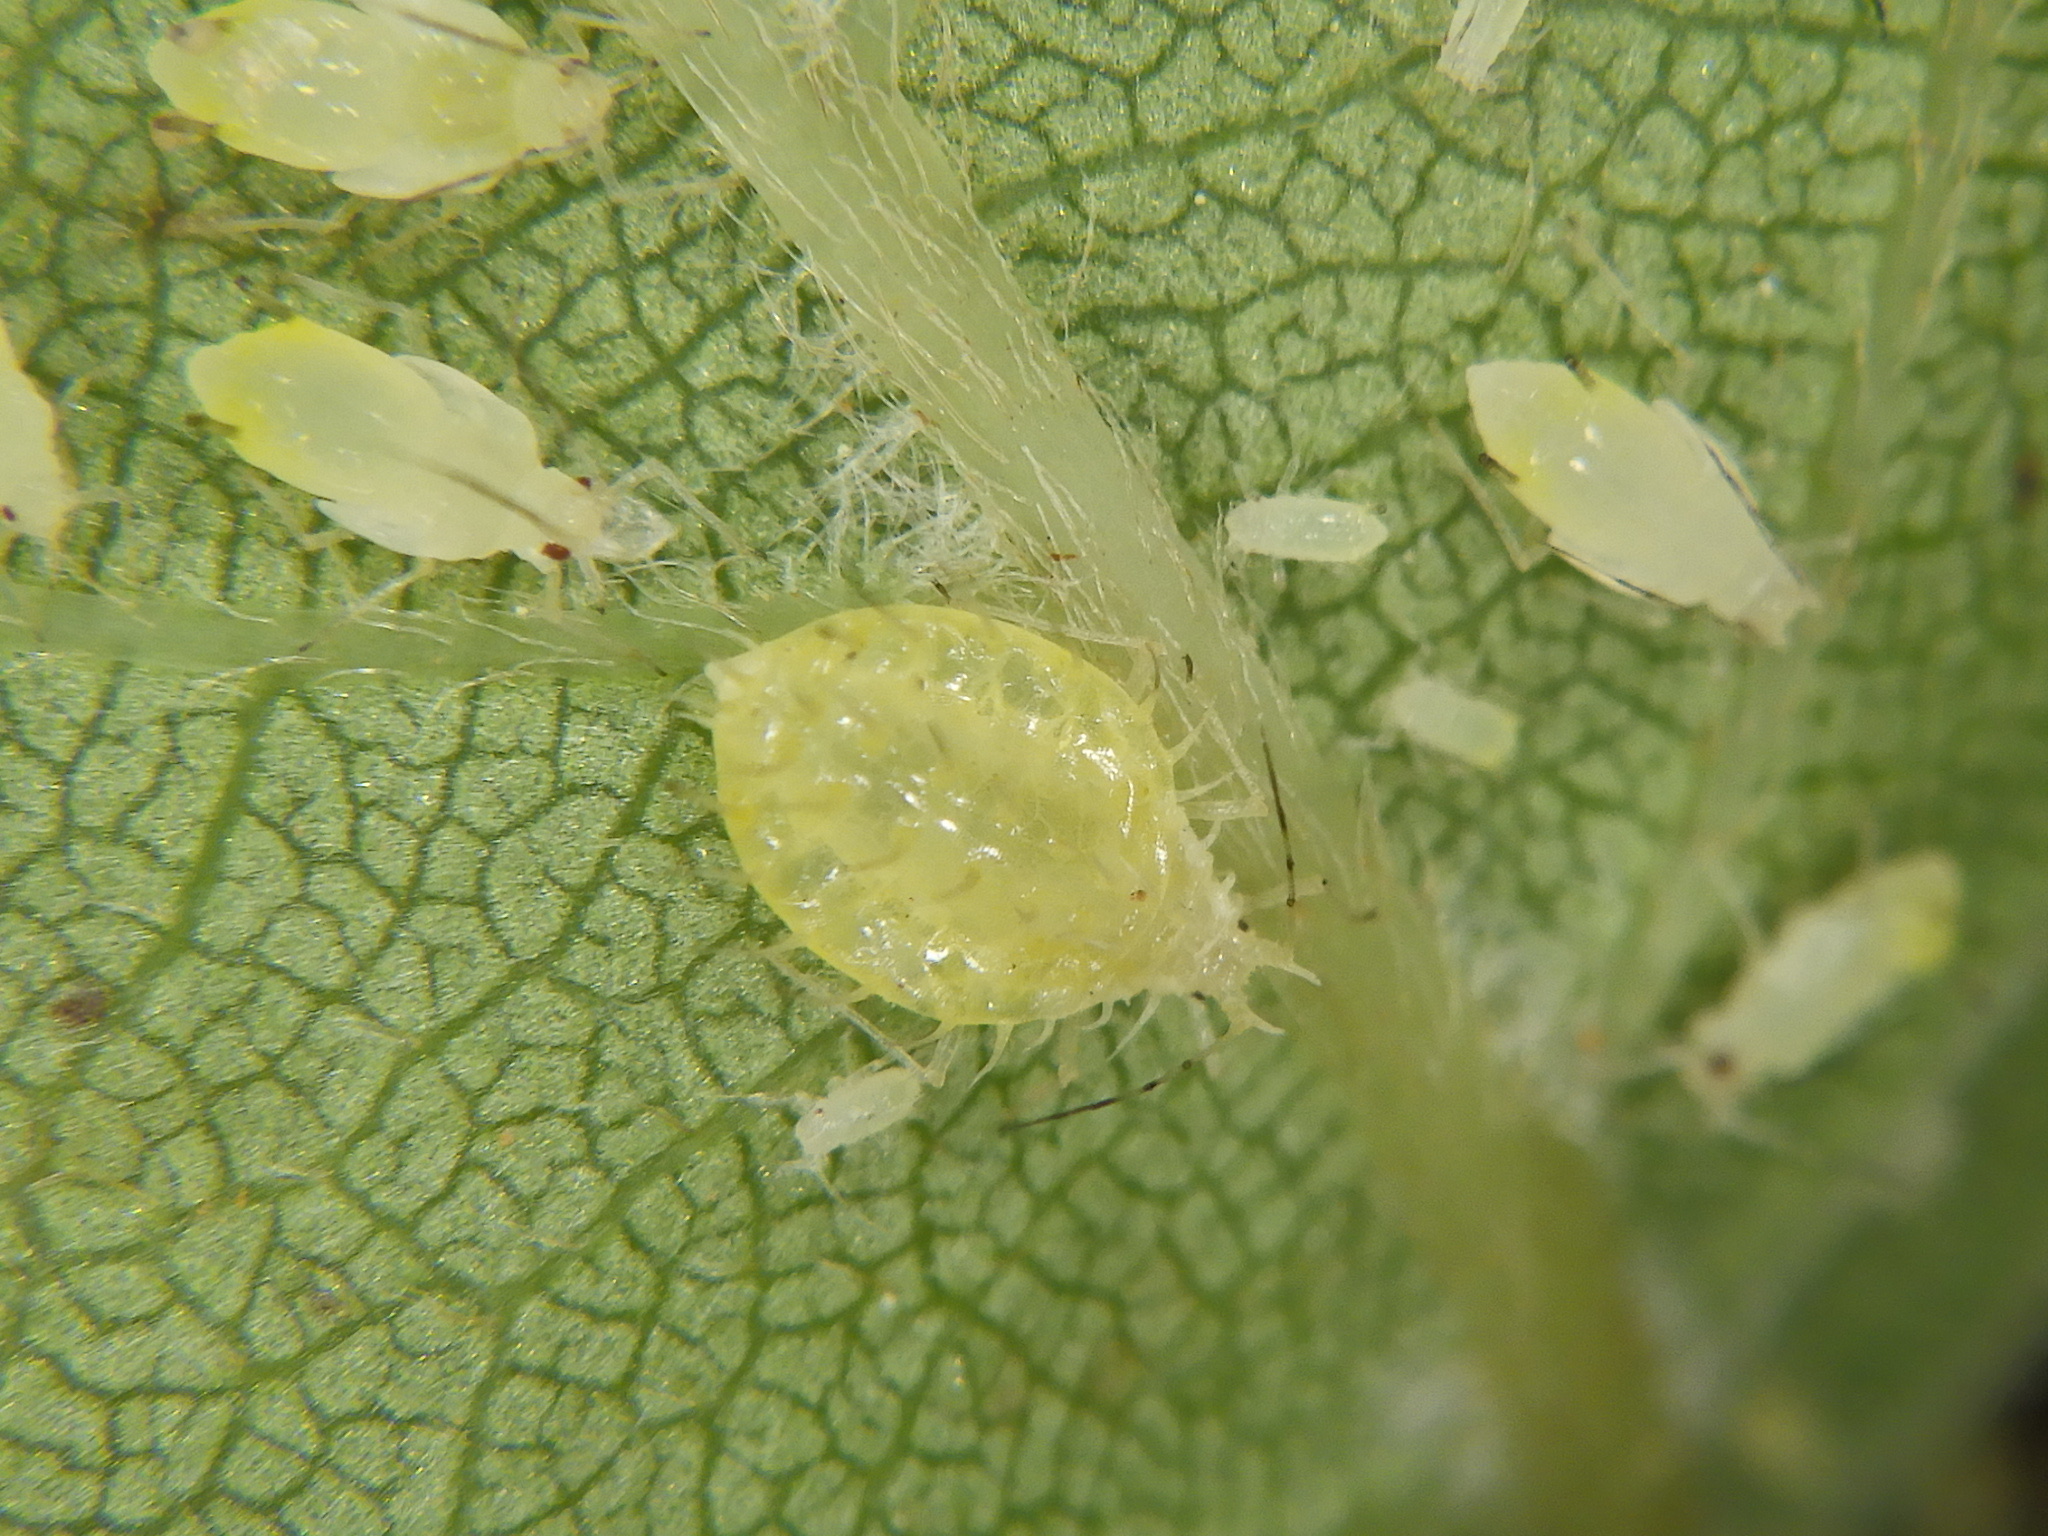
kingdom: Animalia
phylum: Arthropoda
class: Insecta
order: Hemiptera
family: Aphididae
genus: Matsumuraja
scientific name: Matsumuraja rubifoliae
